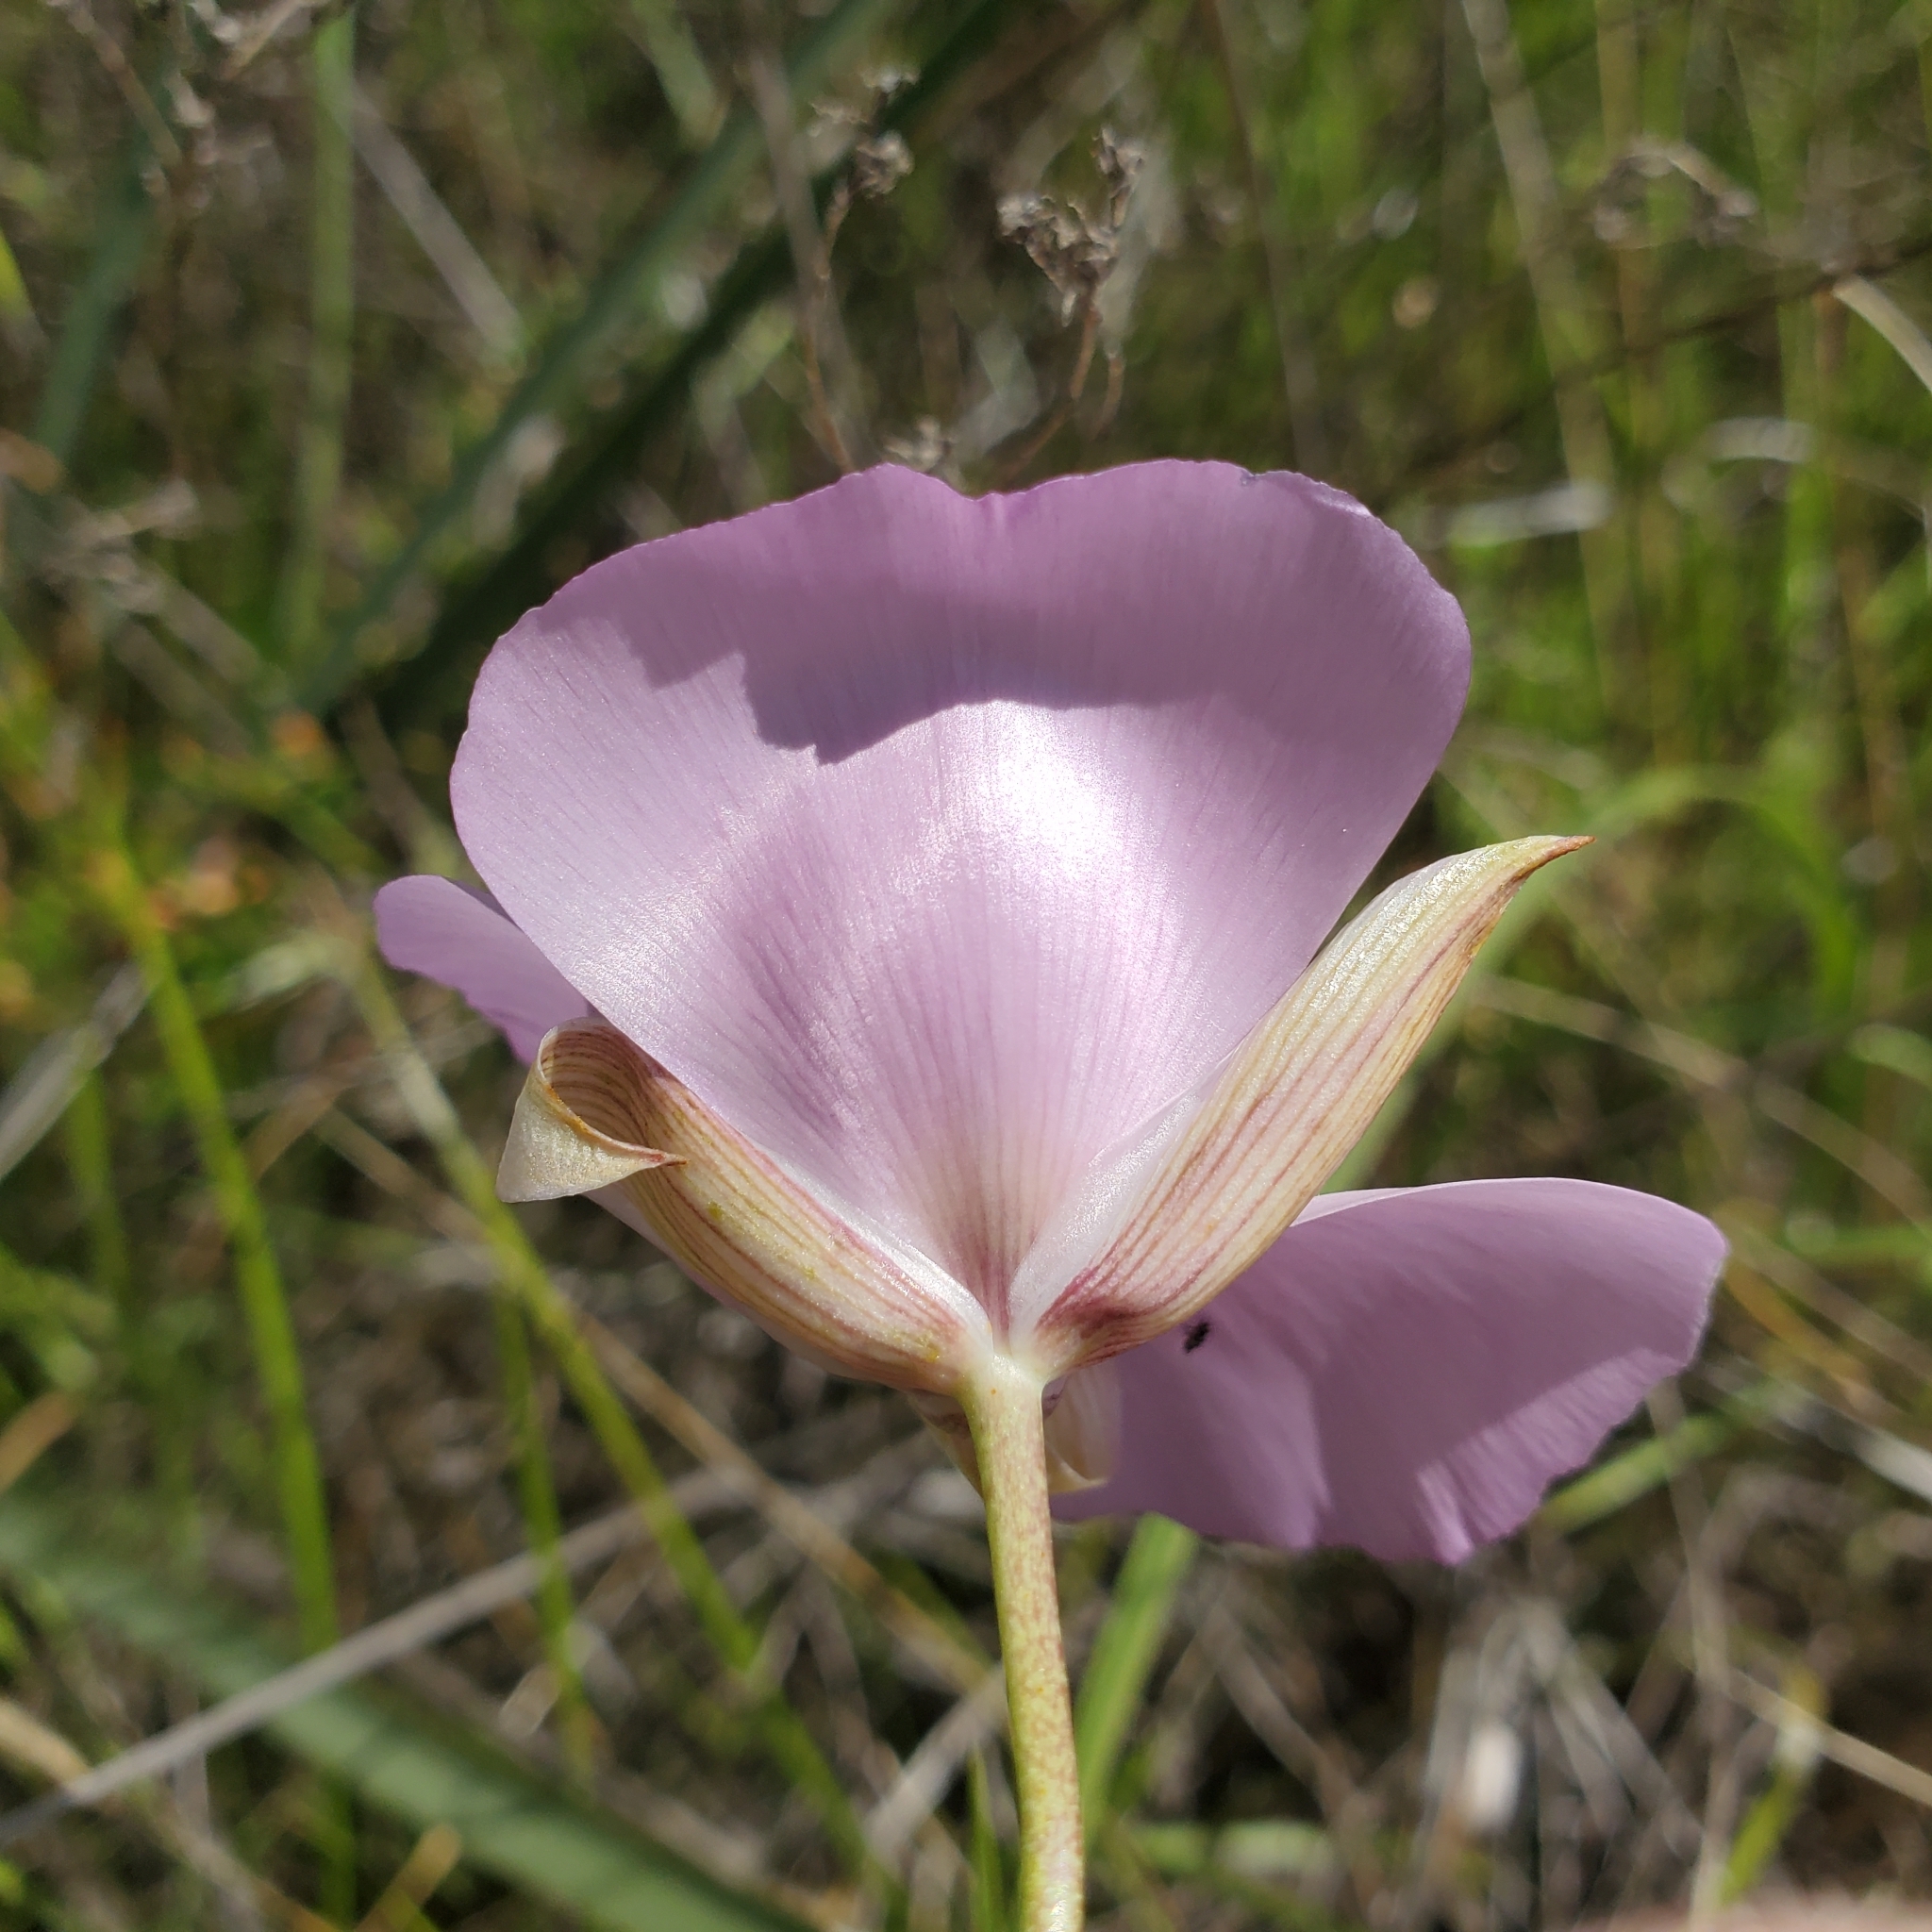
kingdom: Plantae
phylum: Tracheophyta
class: Liliopsida
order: Liliales
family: Liliaceae
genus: Calochortus
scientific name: Calochortus splendens
